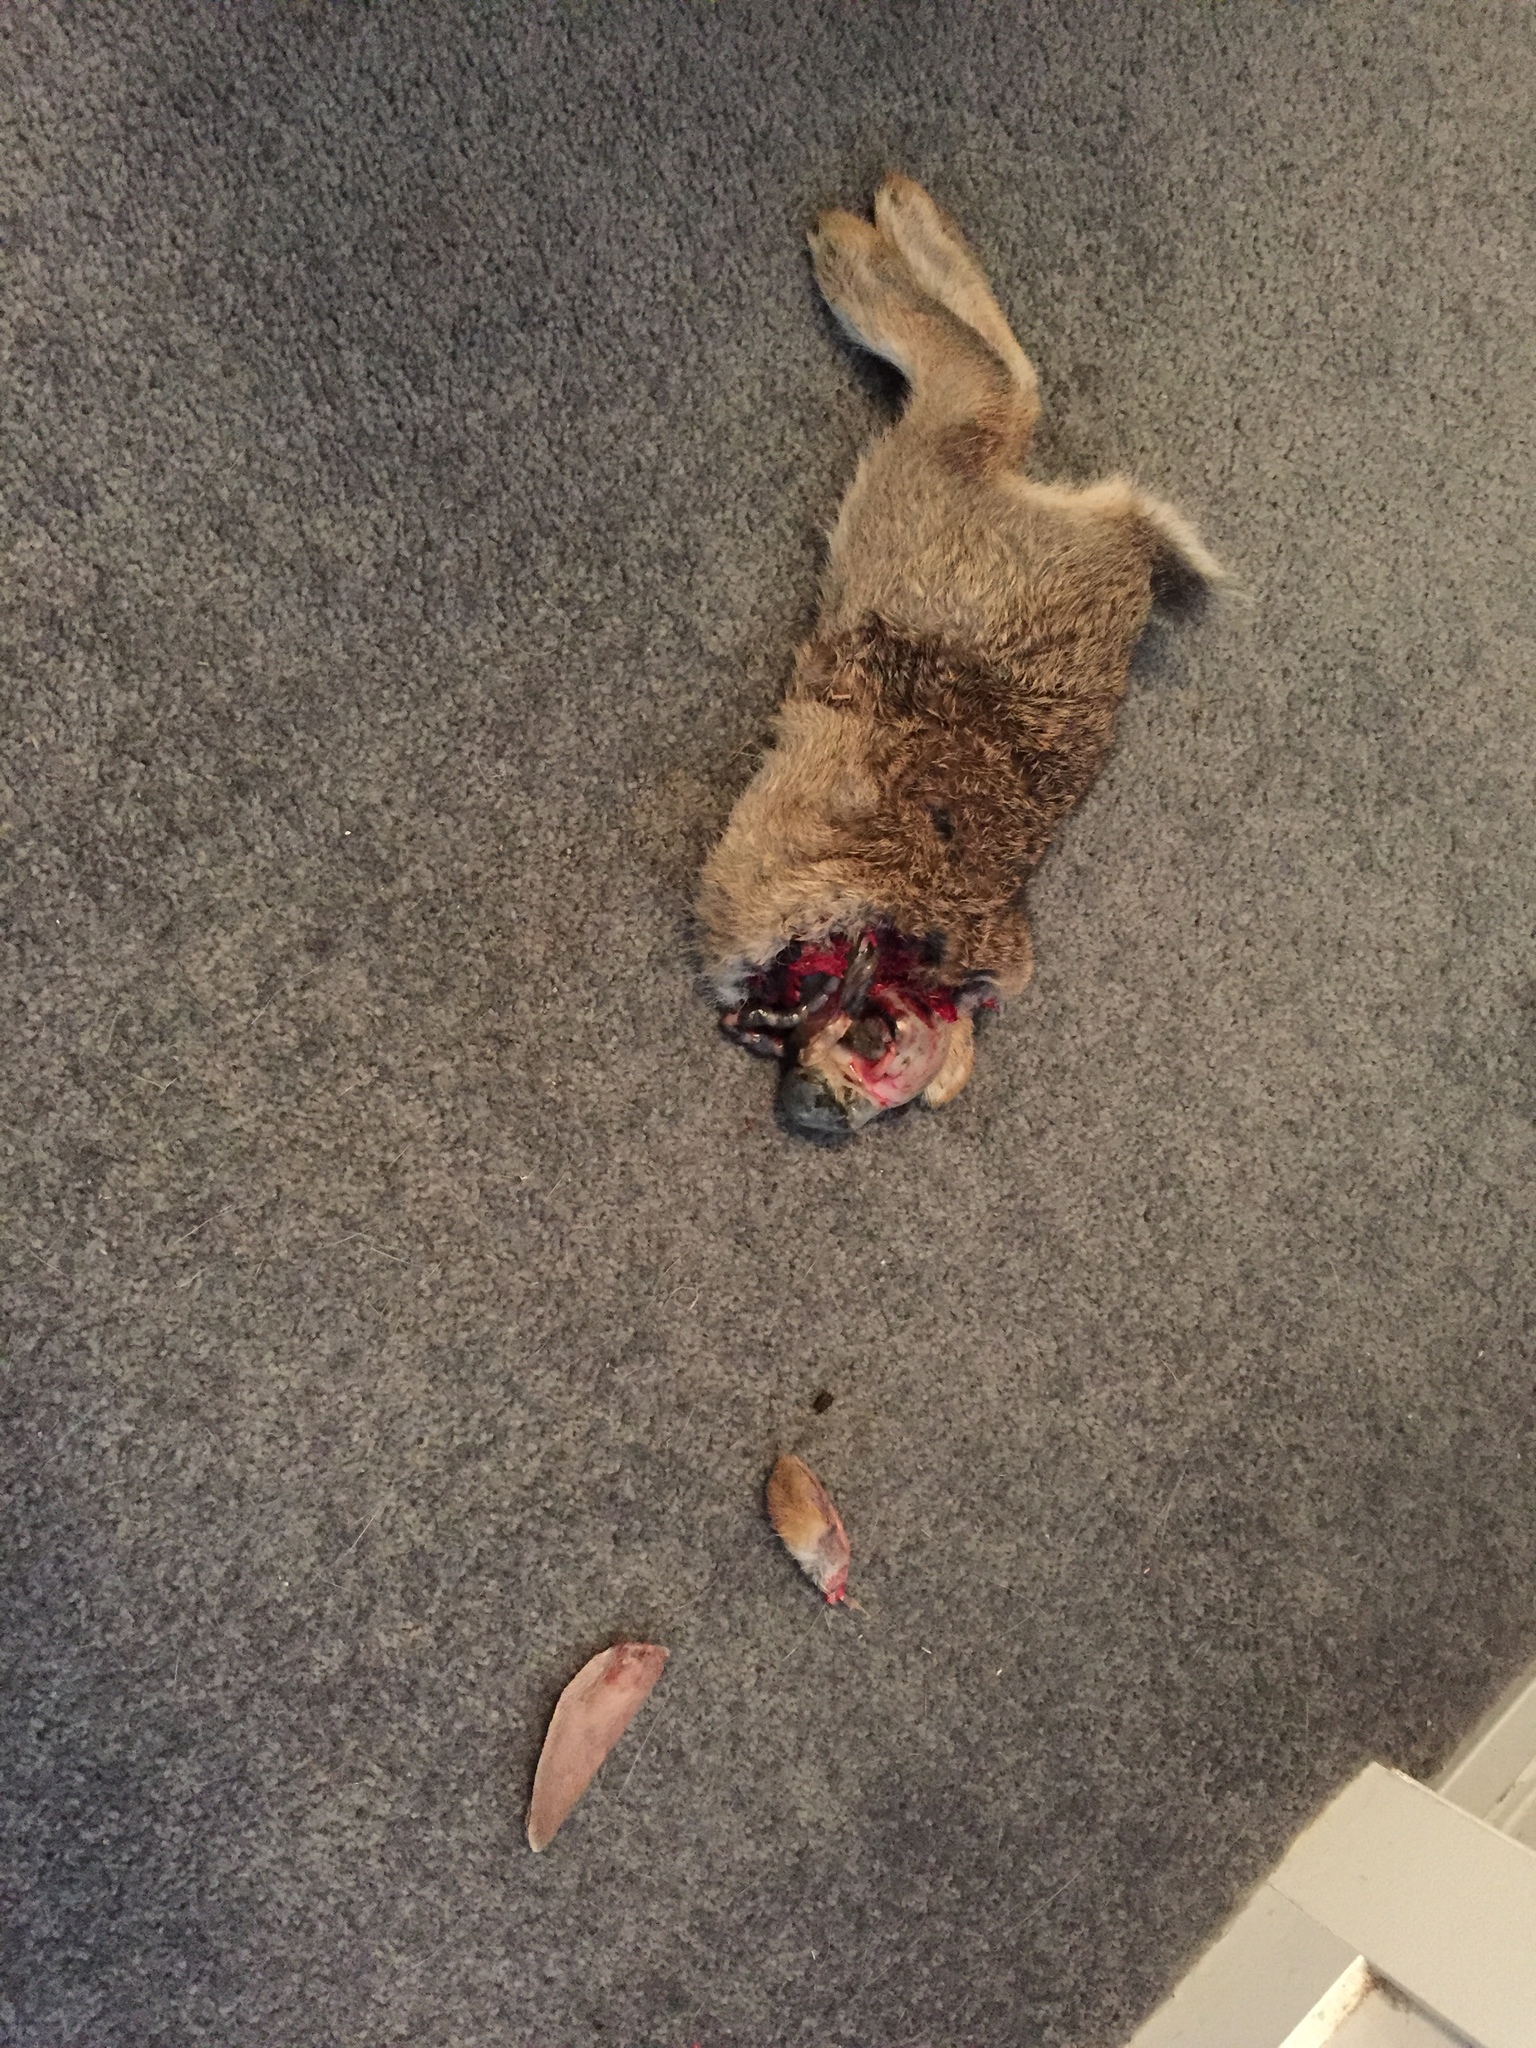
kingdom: Animalia
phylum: Chordata
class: Mammalia
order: Lagomorpha
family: Leporidae
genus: Oryctolagus
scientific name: Oryctolagus cuniculus
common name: European rabbit
